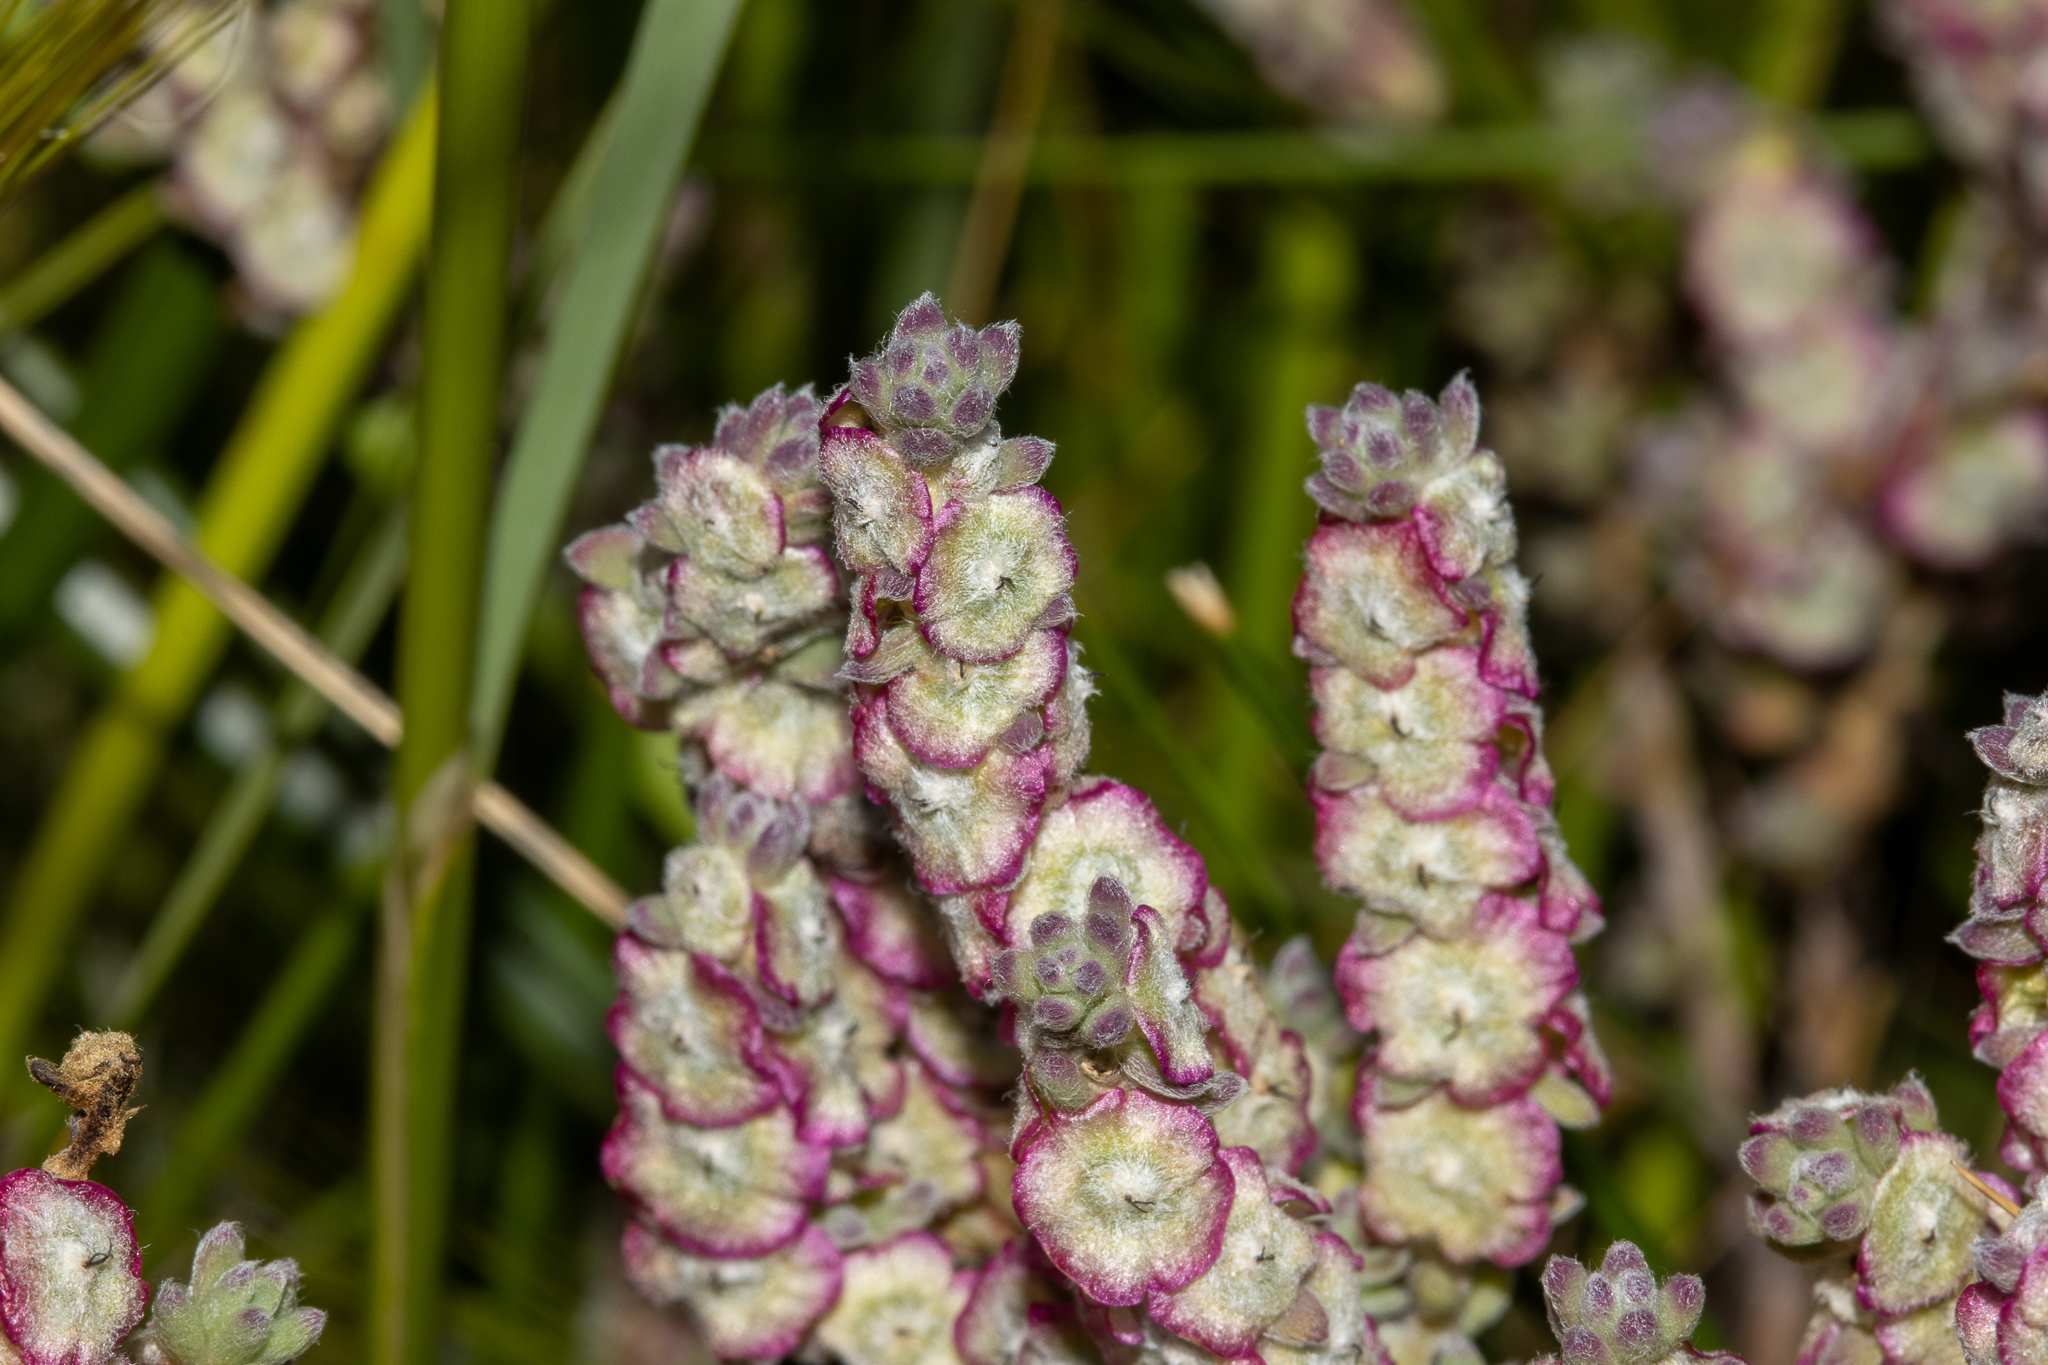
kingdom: Plantae
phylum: Tracheophyta
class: Magnoliopsida
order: Caryophyllales
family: Amaranthaceae
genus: Maireana
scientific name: Maireana trichoptera
